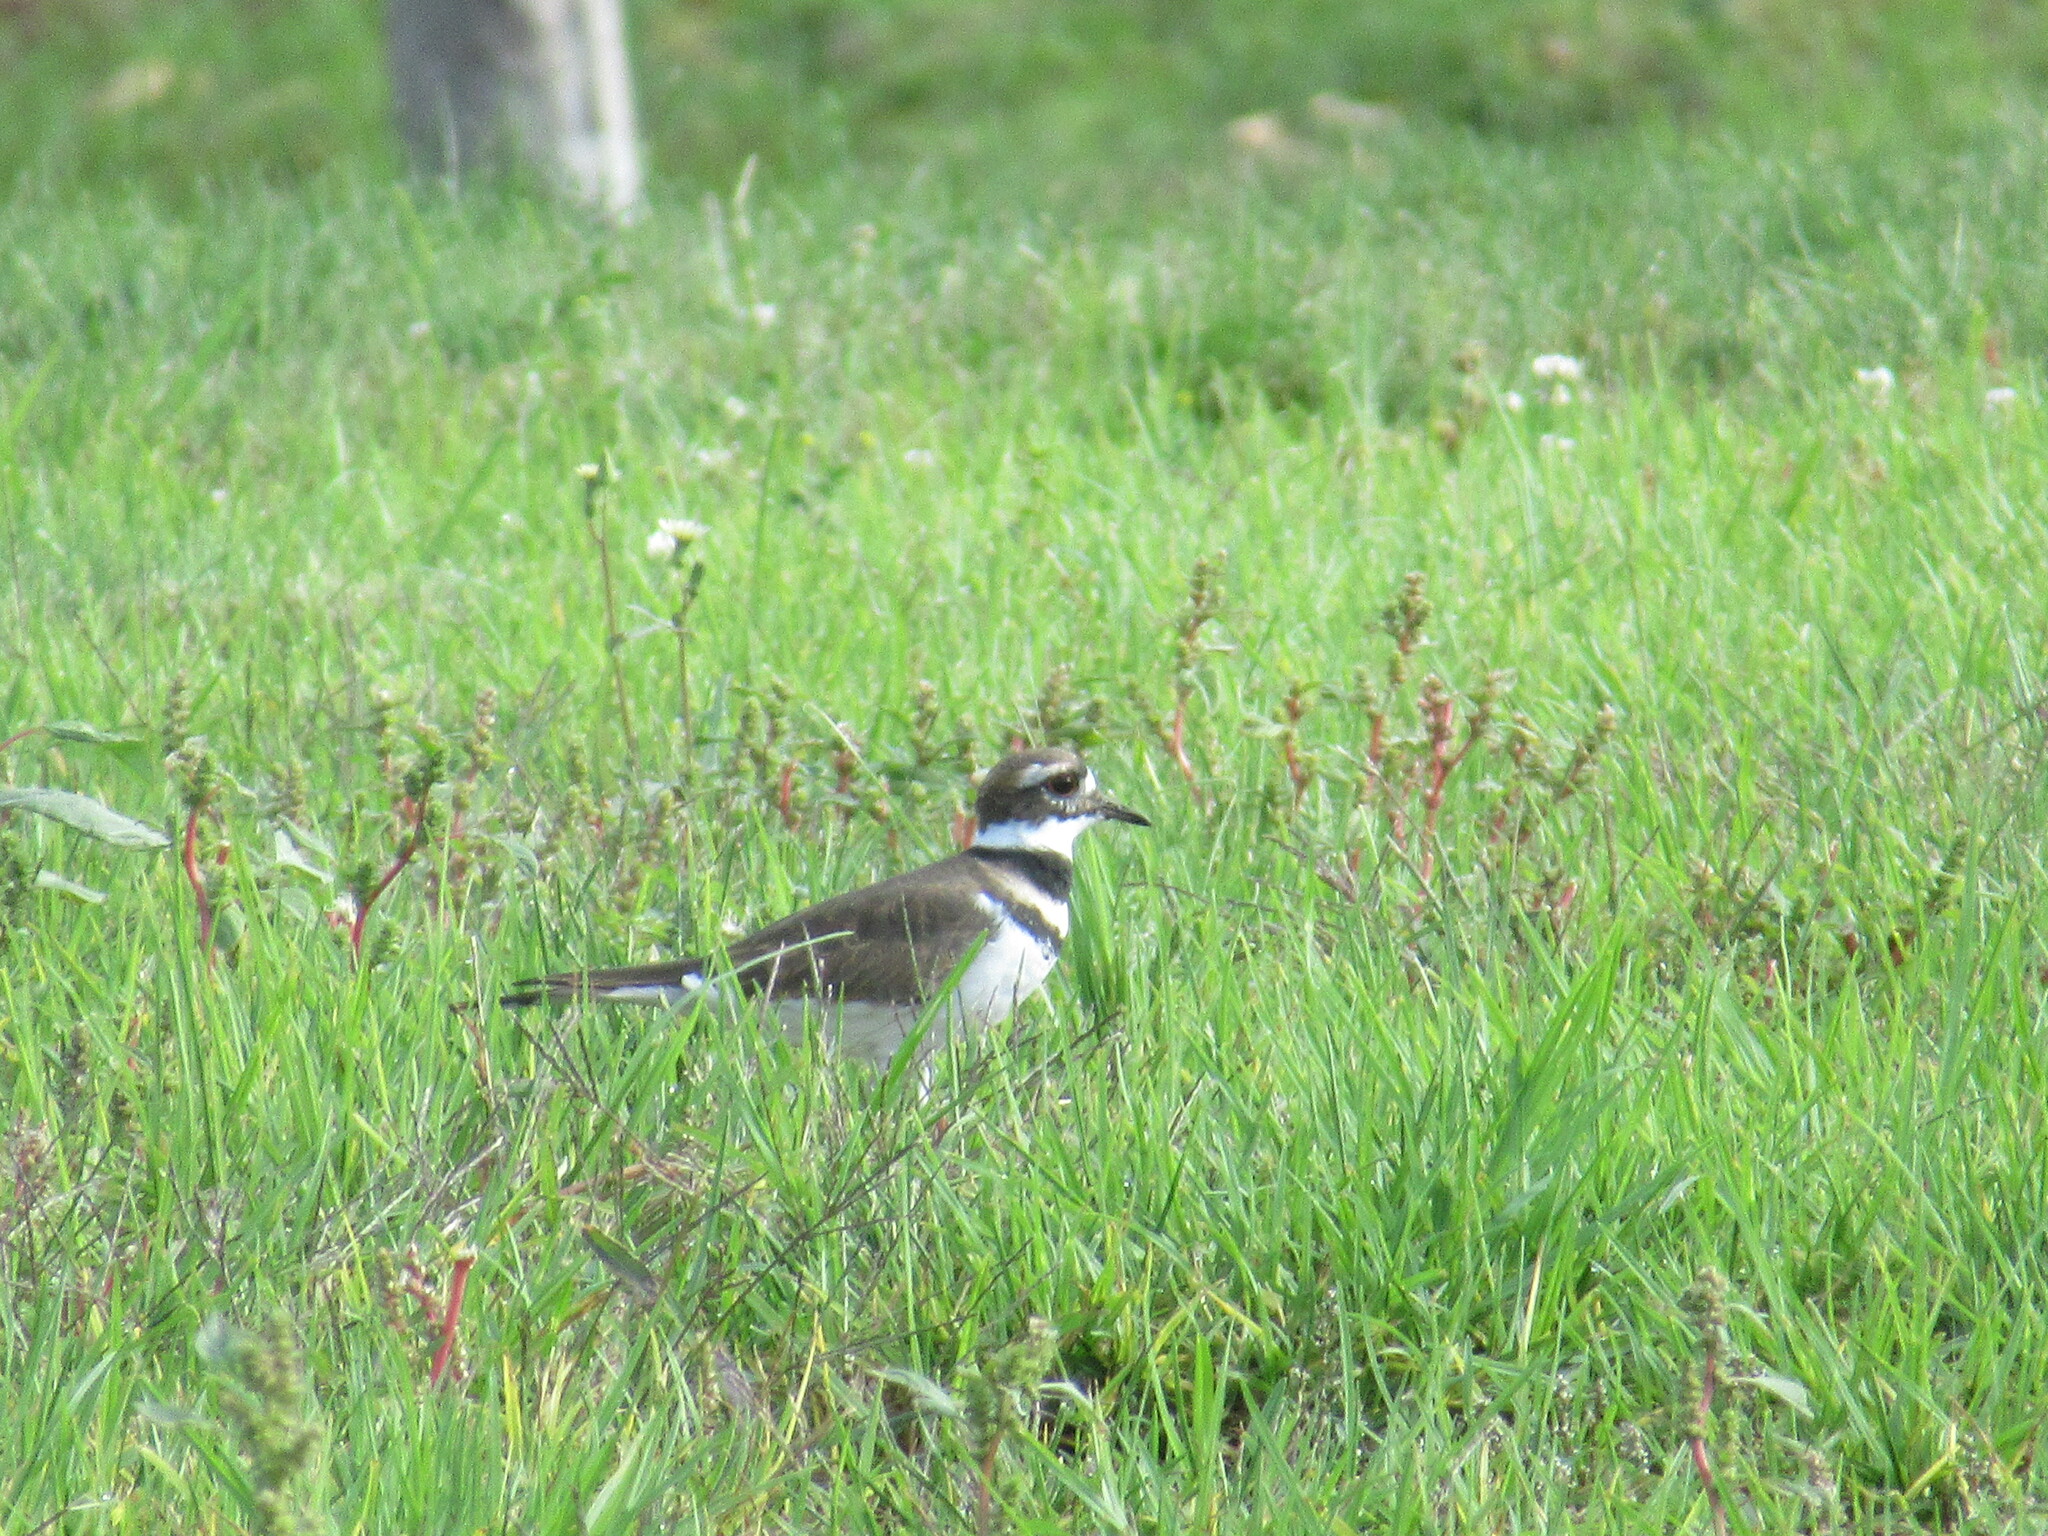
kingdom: Animalia
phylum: Chordata
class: Aves
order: Charadriiformes
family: Charadriidae
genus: Charadrius
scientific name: Charadrius vociferus
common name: Killdeer
